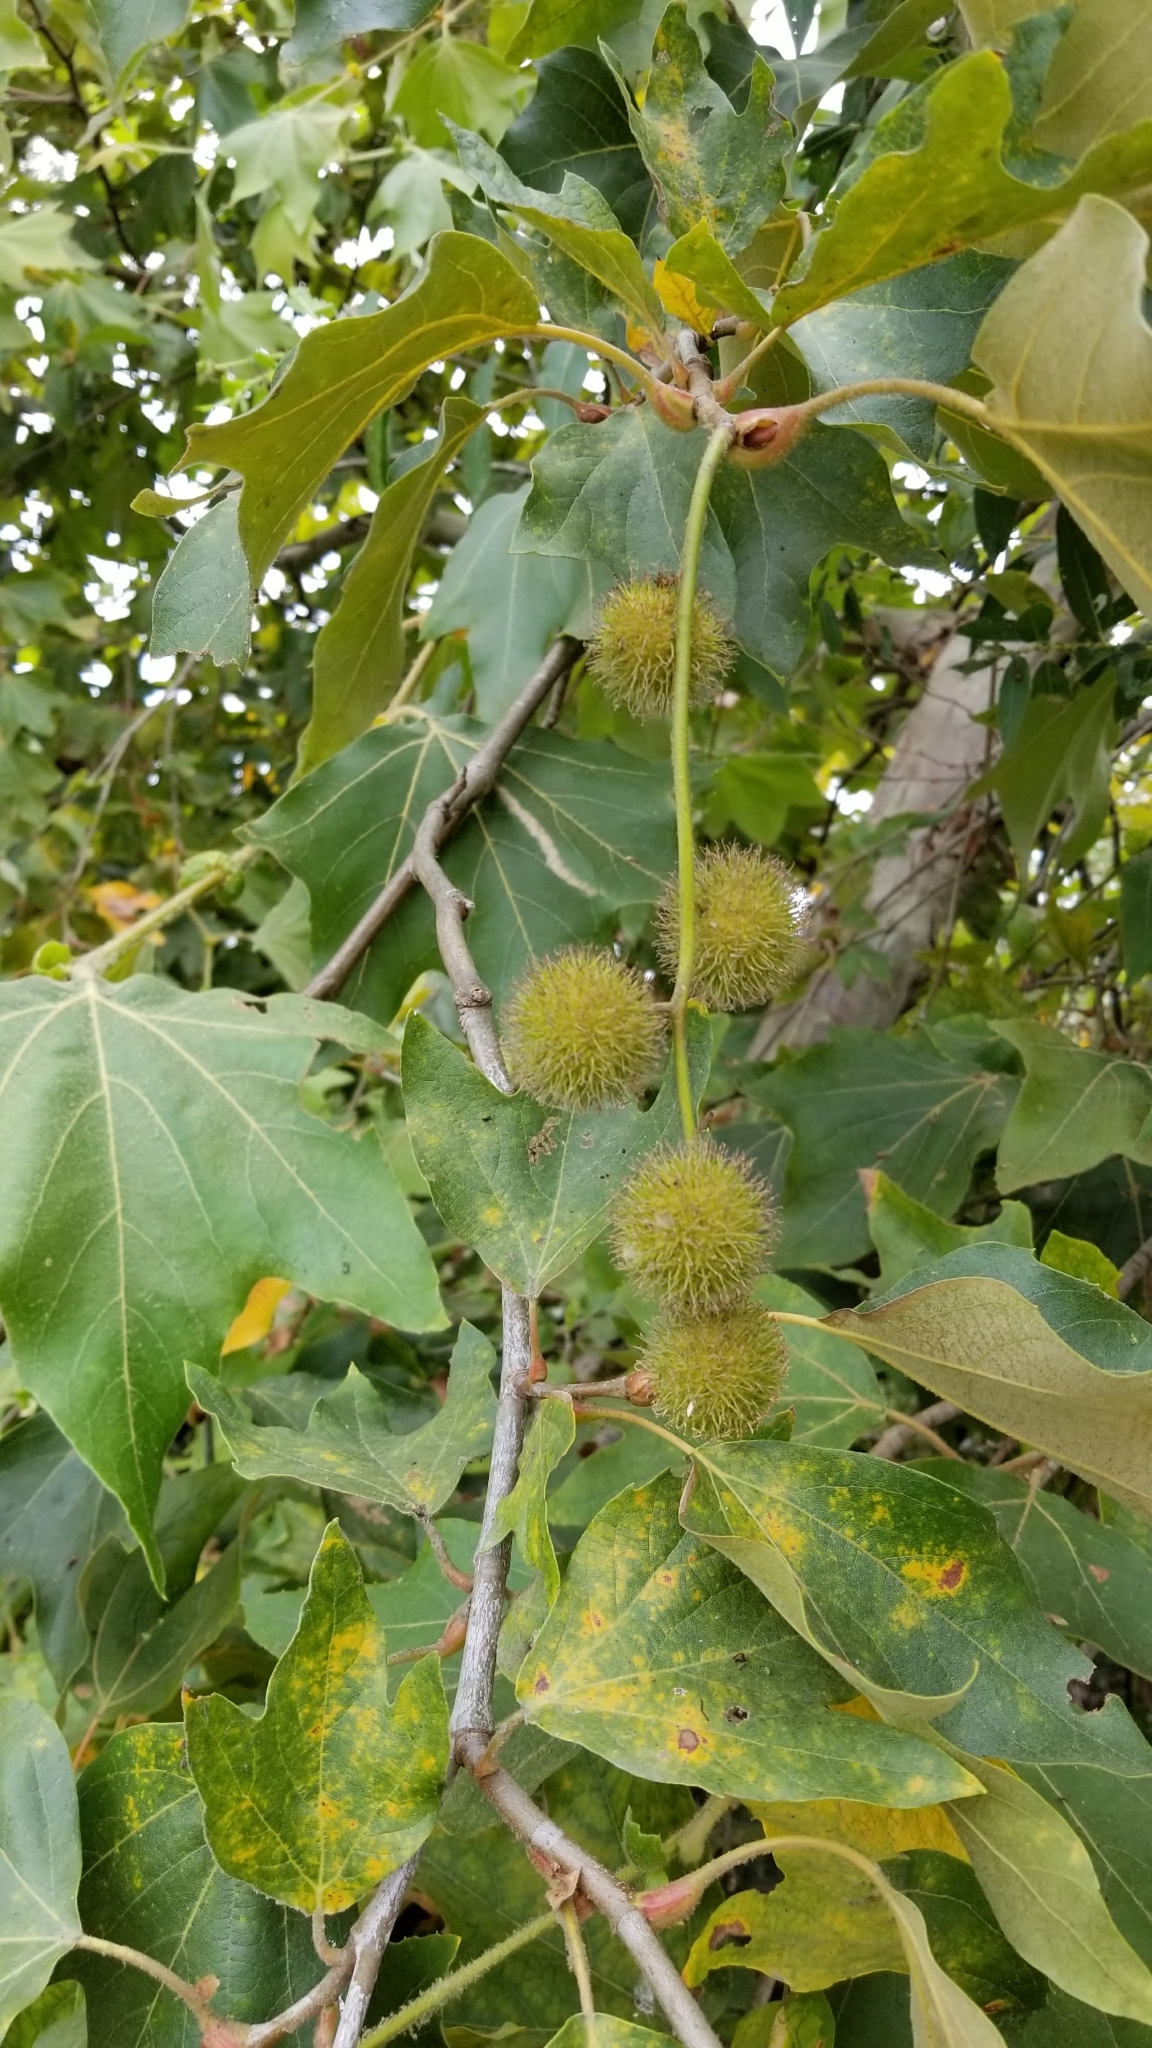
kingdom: Plantae
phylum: Tracheophyta
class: Magnoliopsida
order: Proteales
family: Platanaceae
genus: Platanus
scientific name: Platanus racemosa
